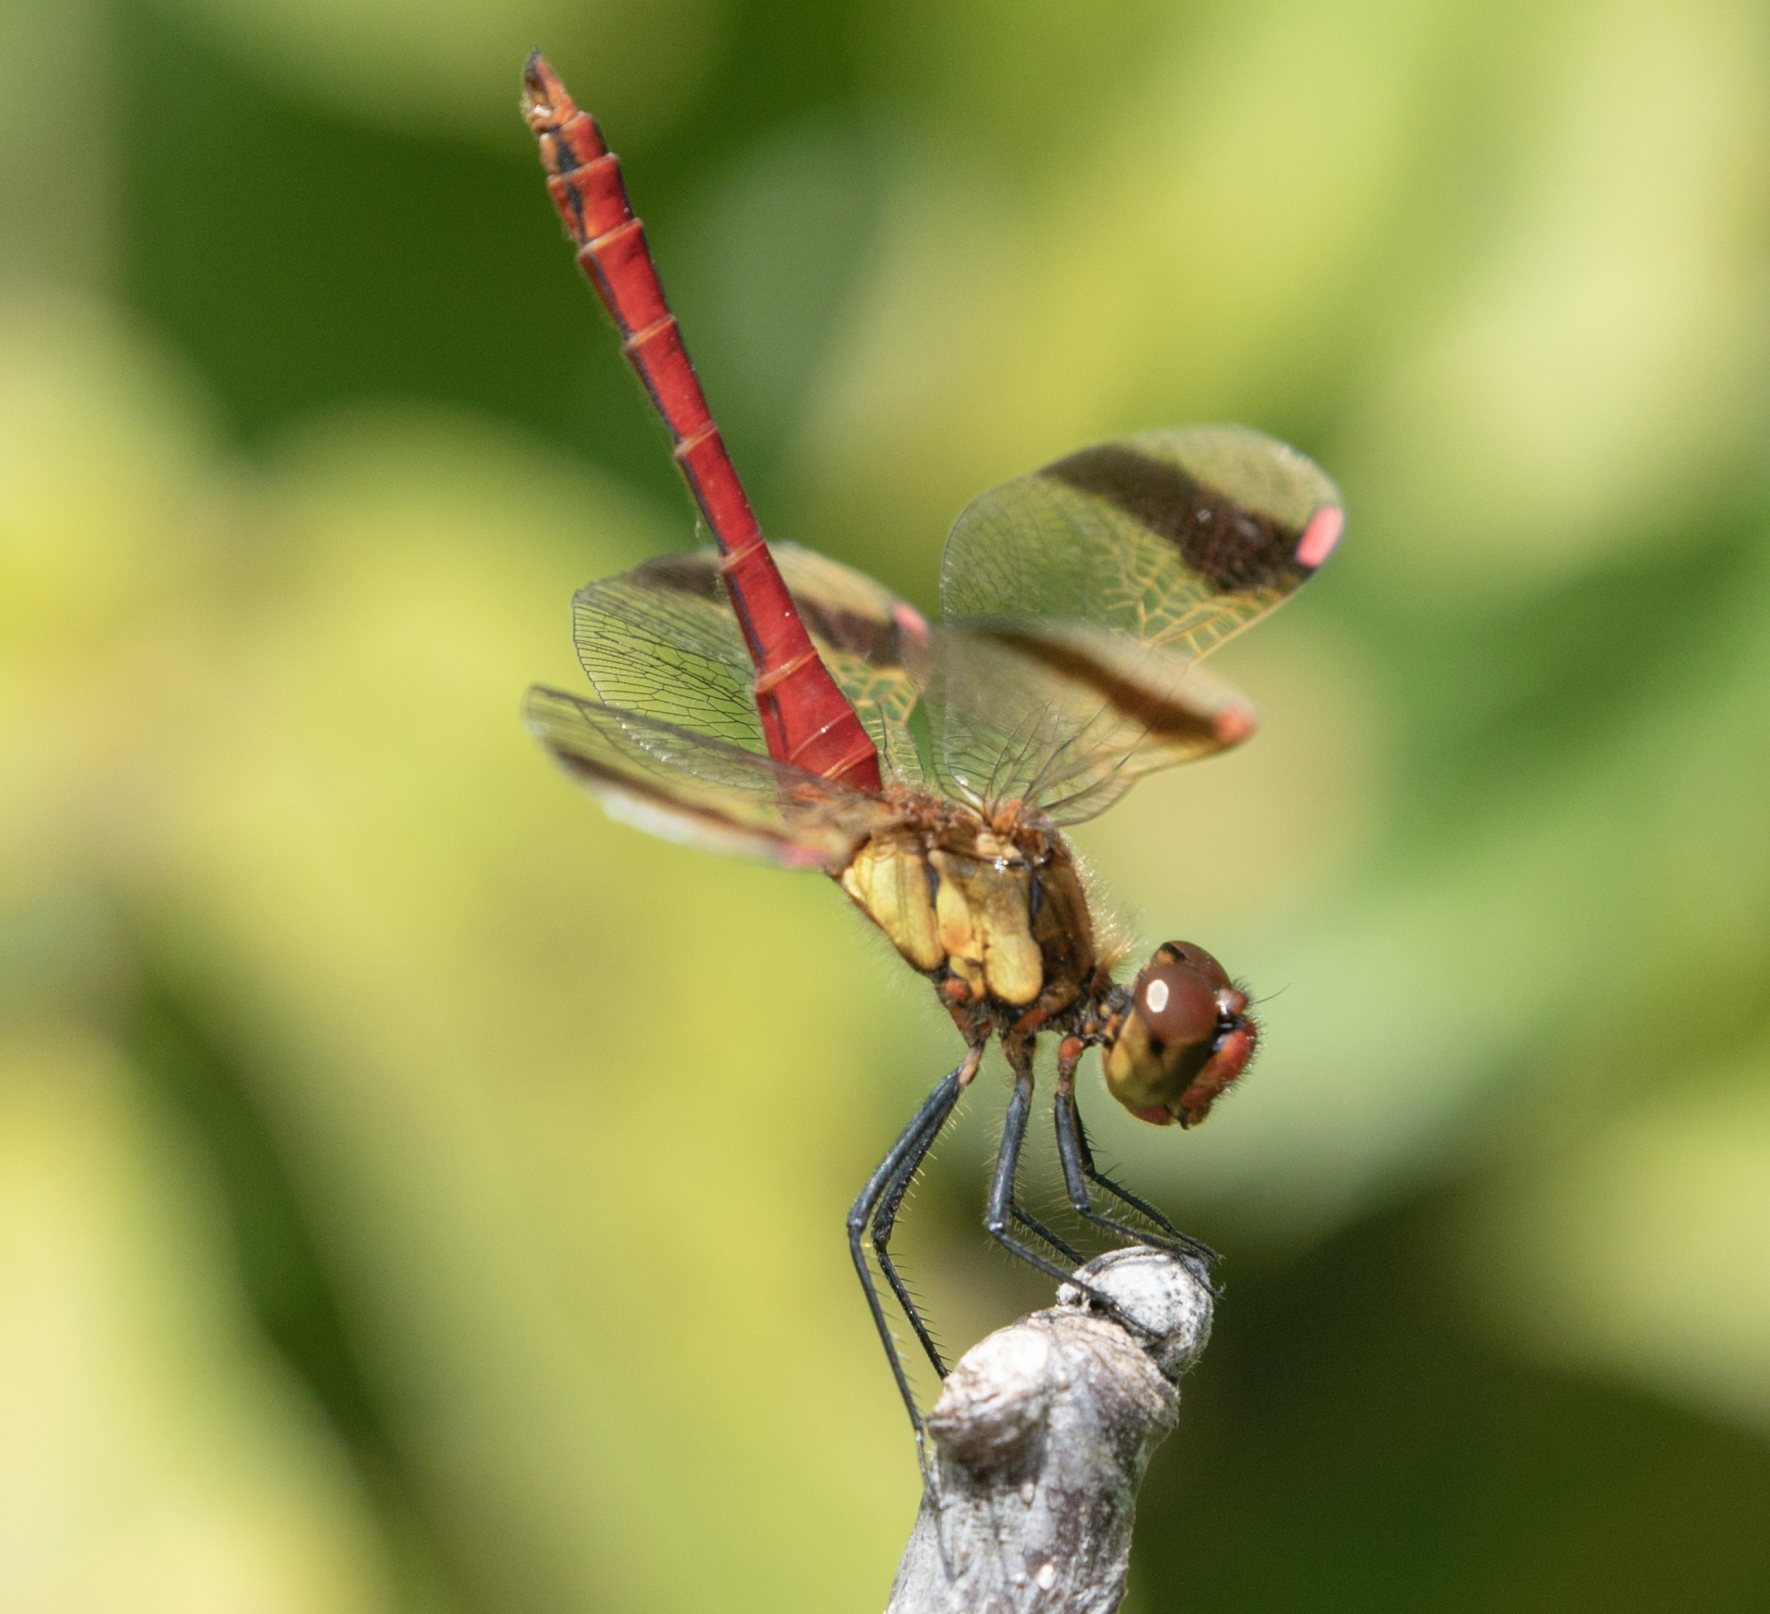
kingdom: Animalia
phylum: Arthropoda
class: Insecta
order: Odonata
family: Libellulidae
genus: Sympetrum
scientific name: Sympetrum pedemontanum
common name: Banded darter
